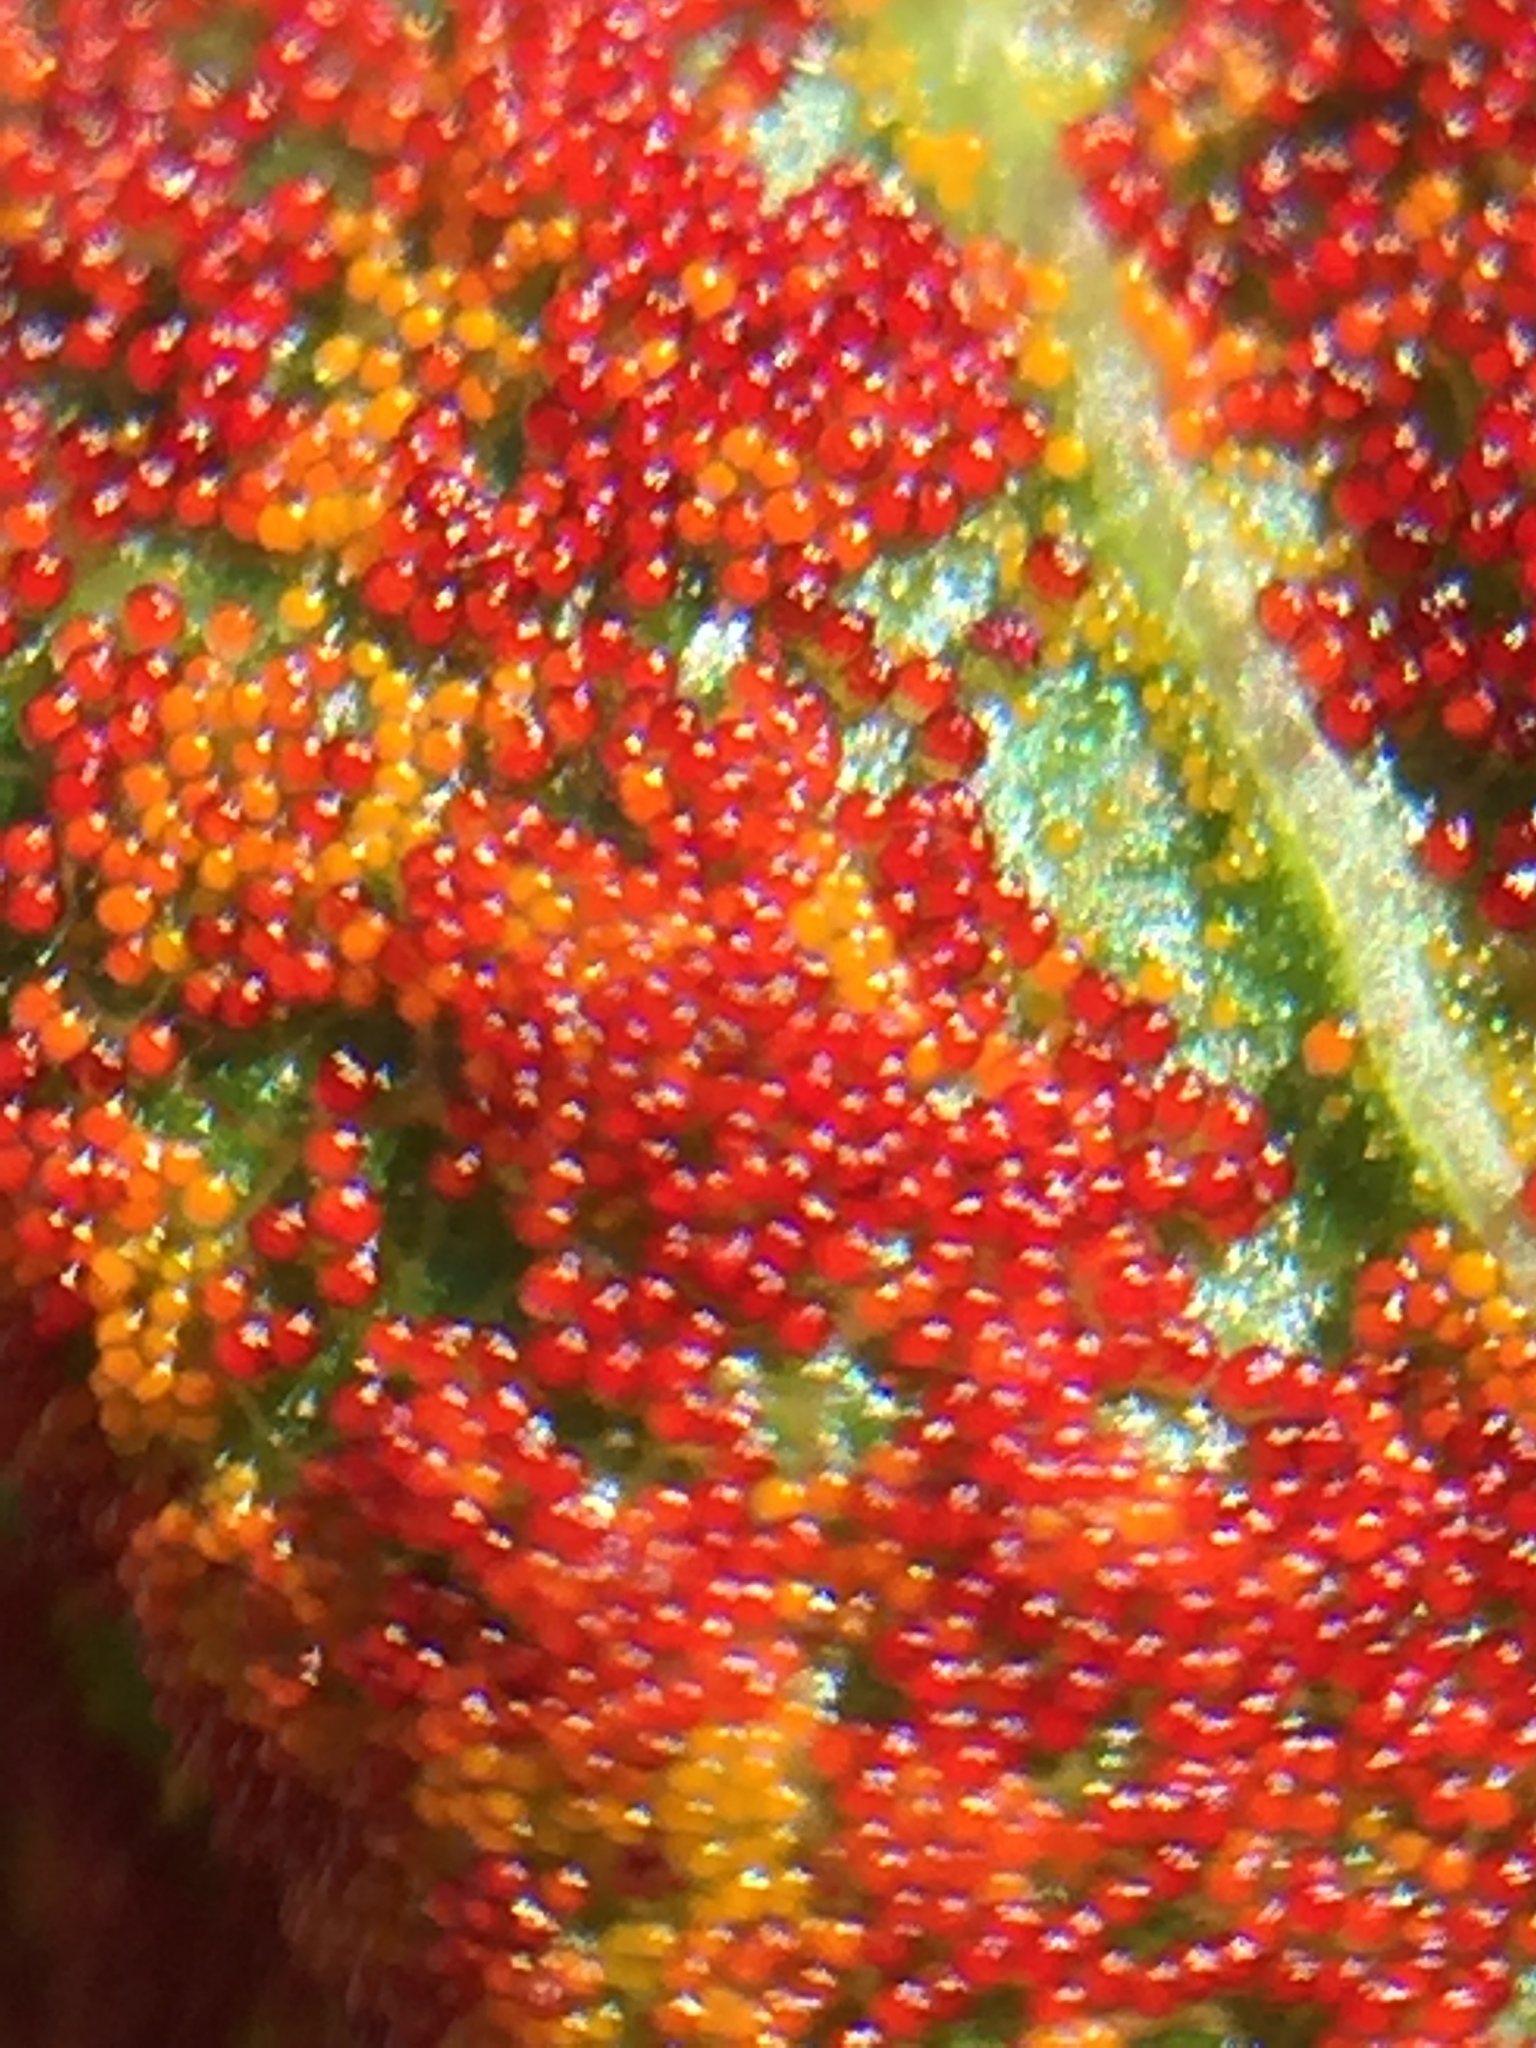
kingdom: Fungi
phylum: Chytridiomycota
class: Chytridiomycetes
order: Chytridiales
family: Synchytriaceae
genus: Synchytrium
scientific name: Synchytrium australe
